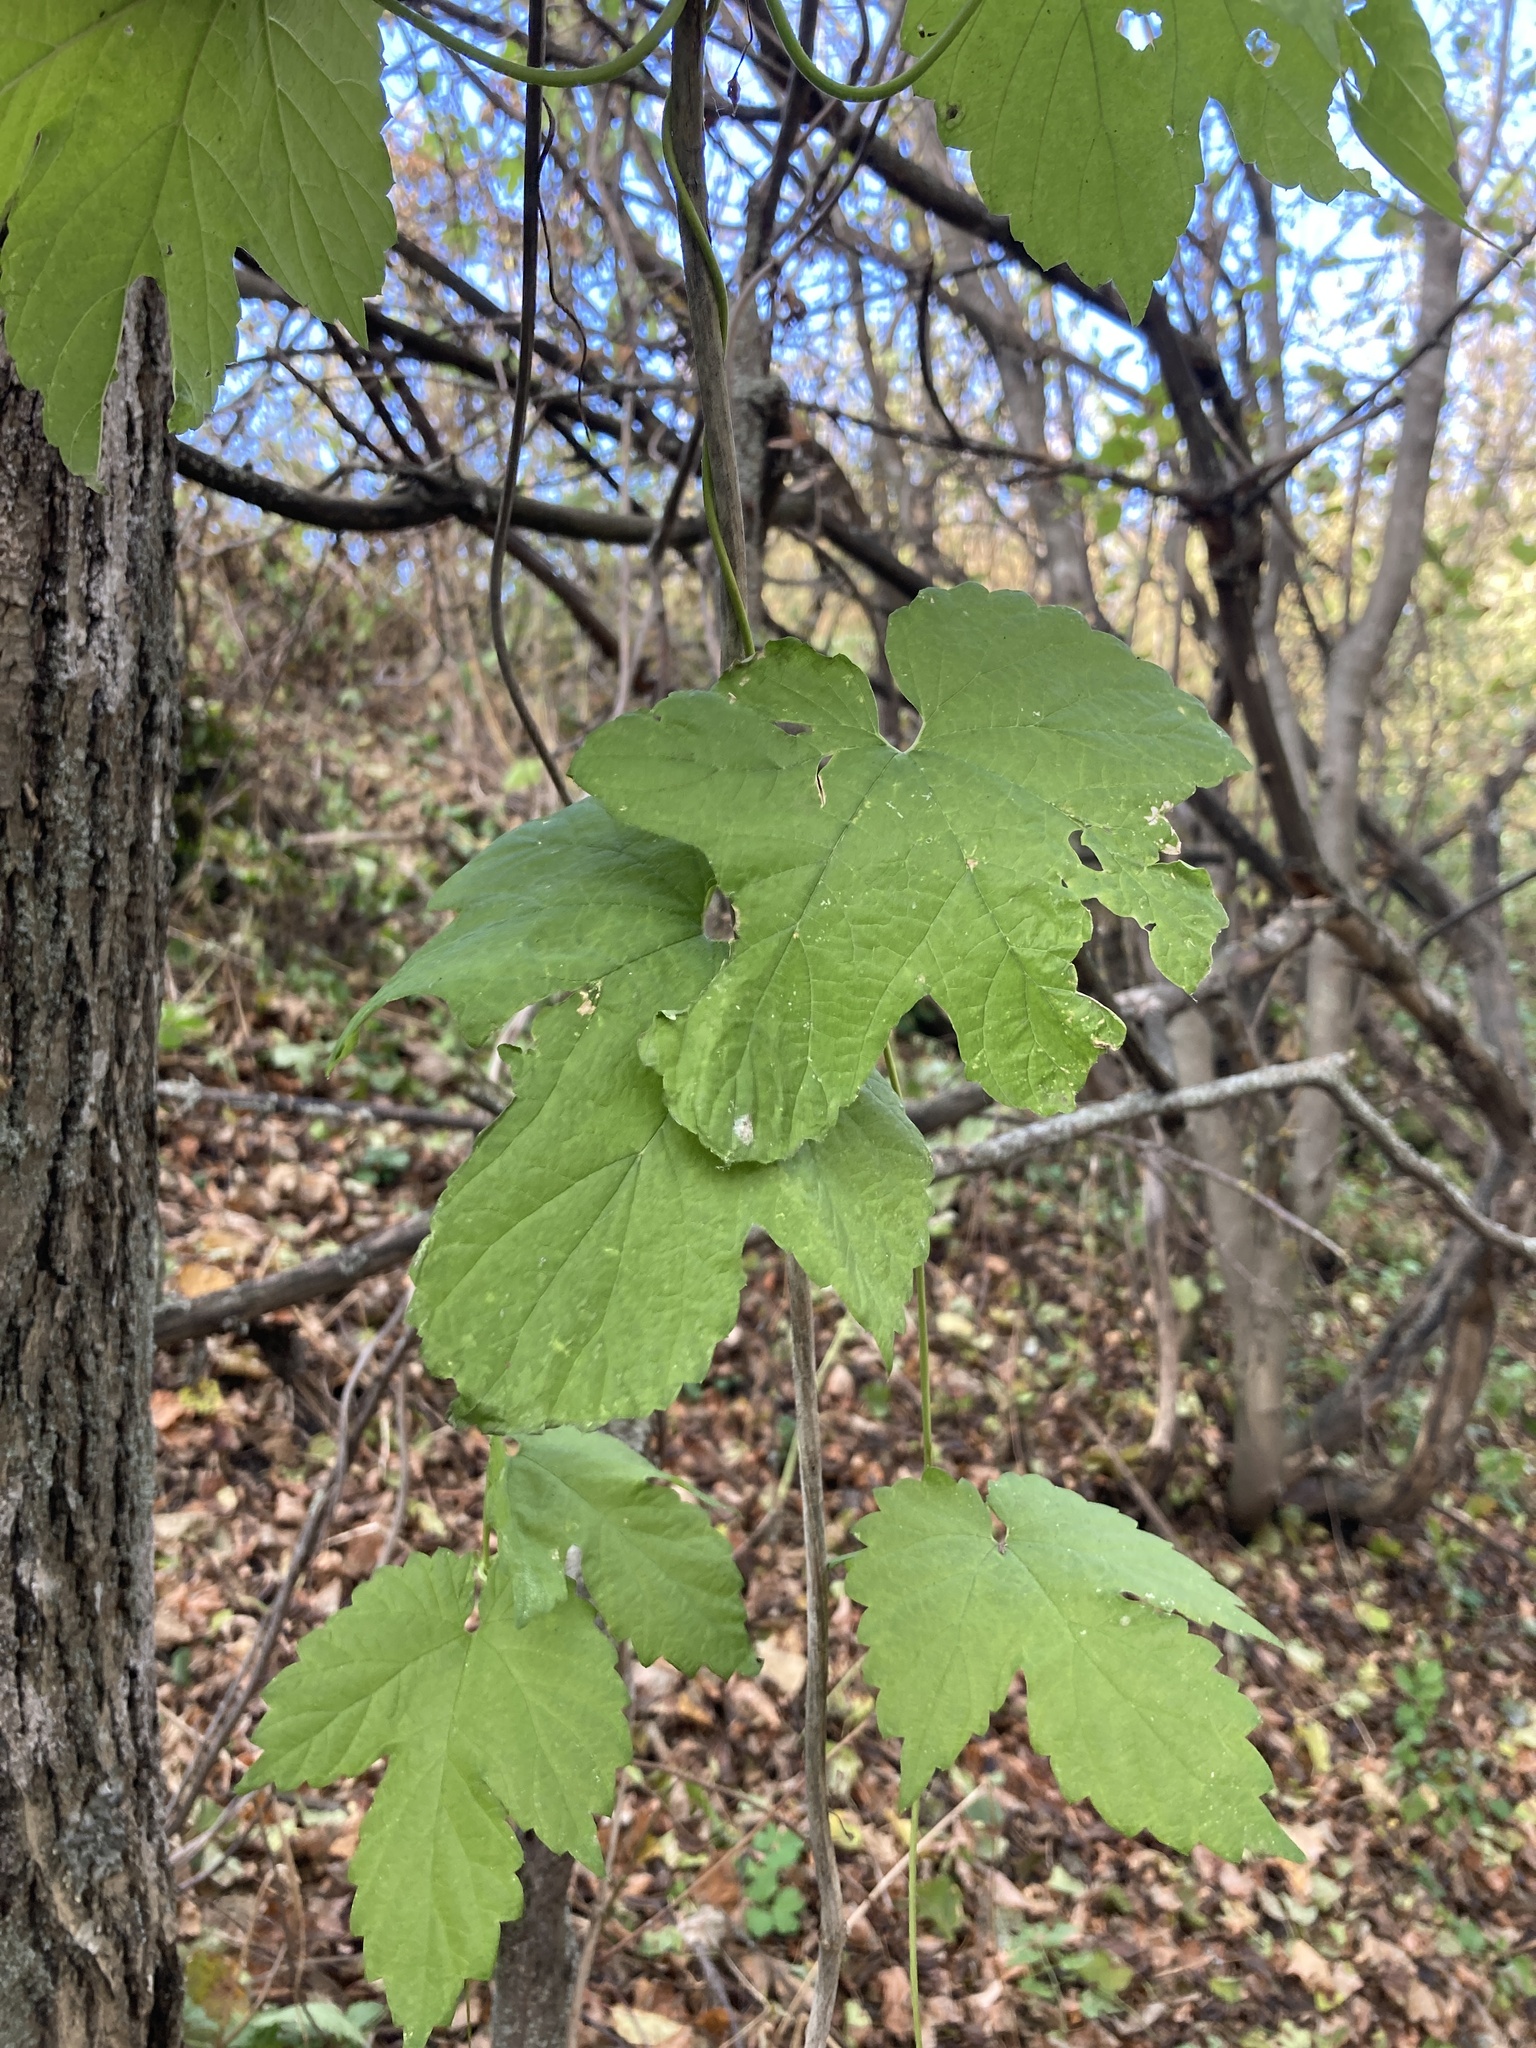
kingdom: Plantae
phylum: Tracheophyta
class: Magnoliopsida
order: Rosales
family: Cannabaceae
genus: Humulus
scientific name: Humulus lupulus
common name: Hop
